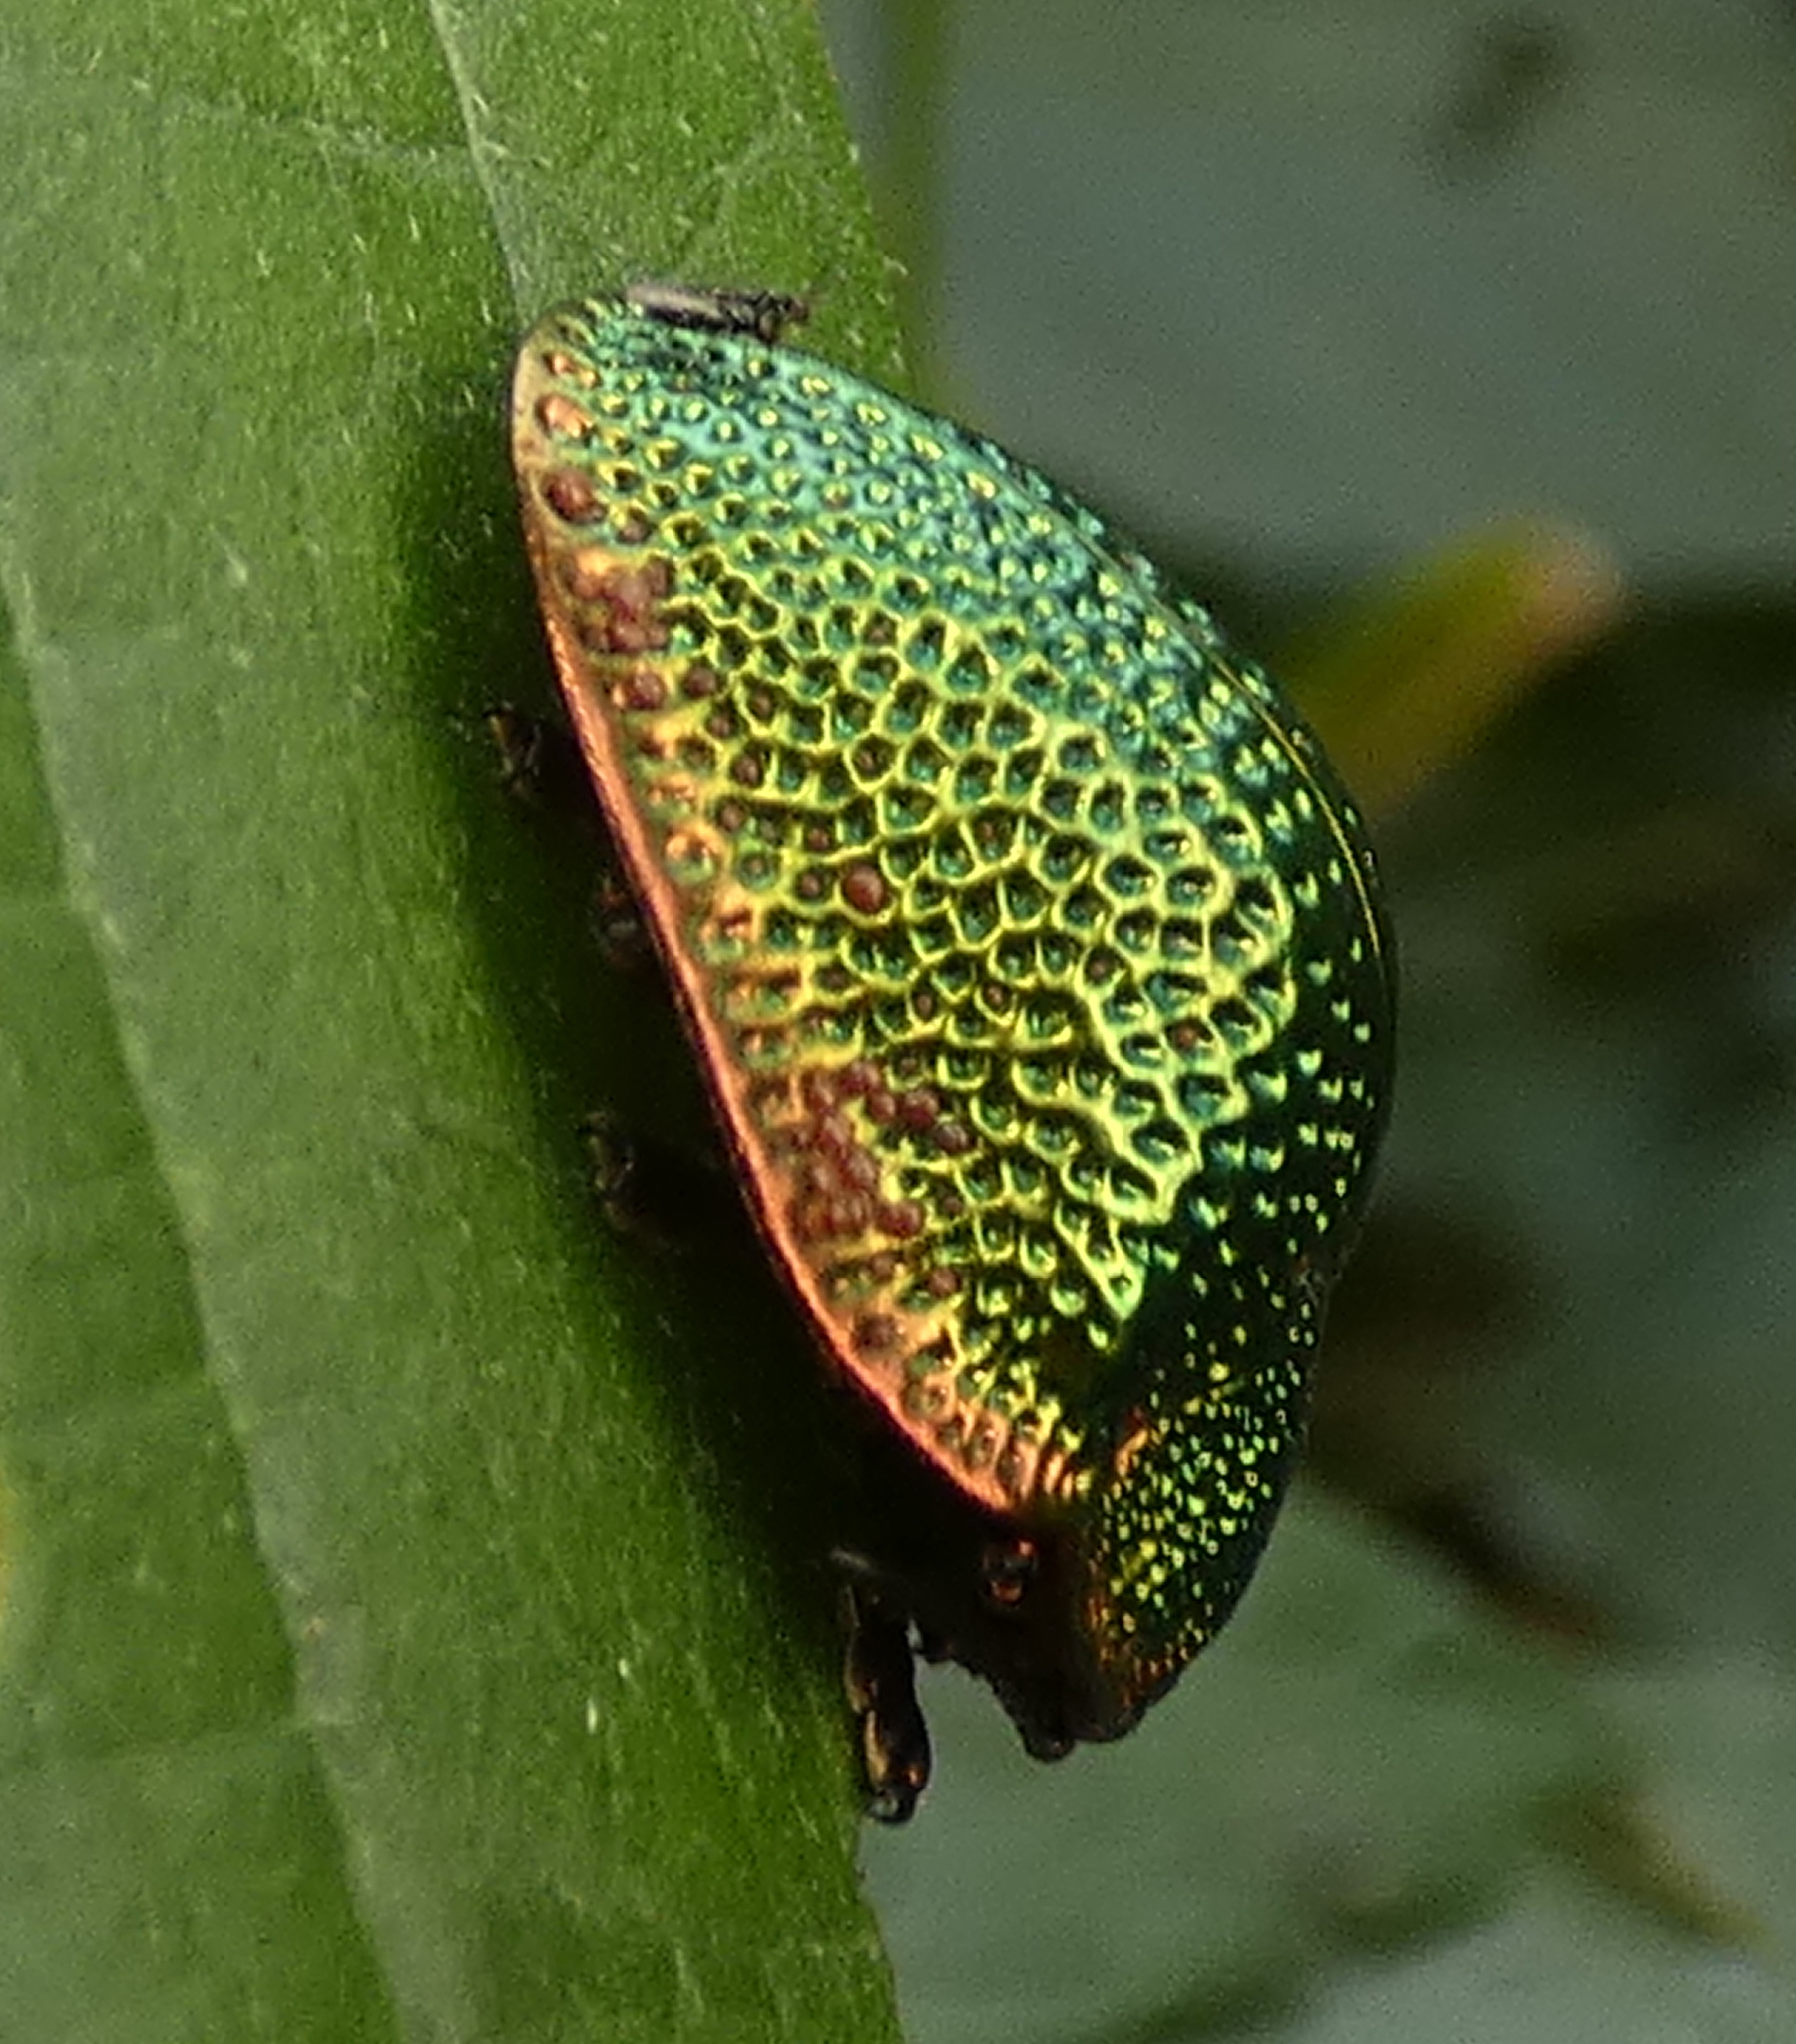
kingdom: Animalia
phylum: Arthropoda
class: Insecta
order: Coleoptera
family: Chrysomelidae
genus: Polychalca
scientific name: Polychalca punctatissima
